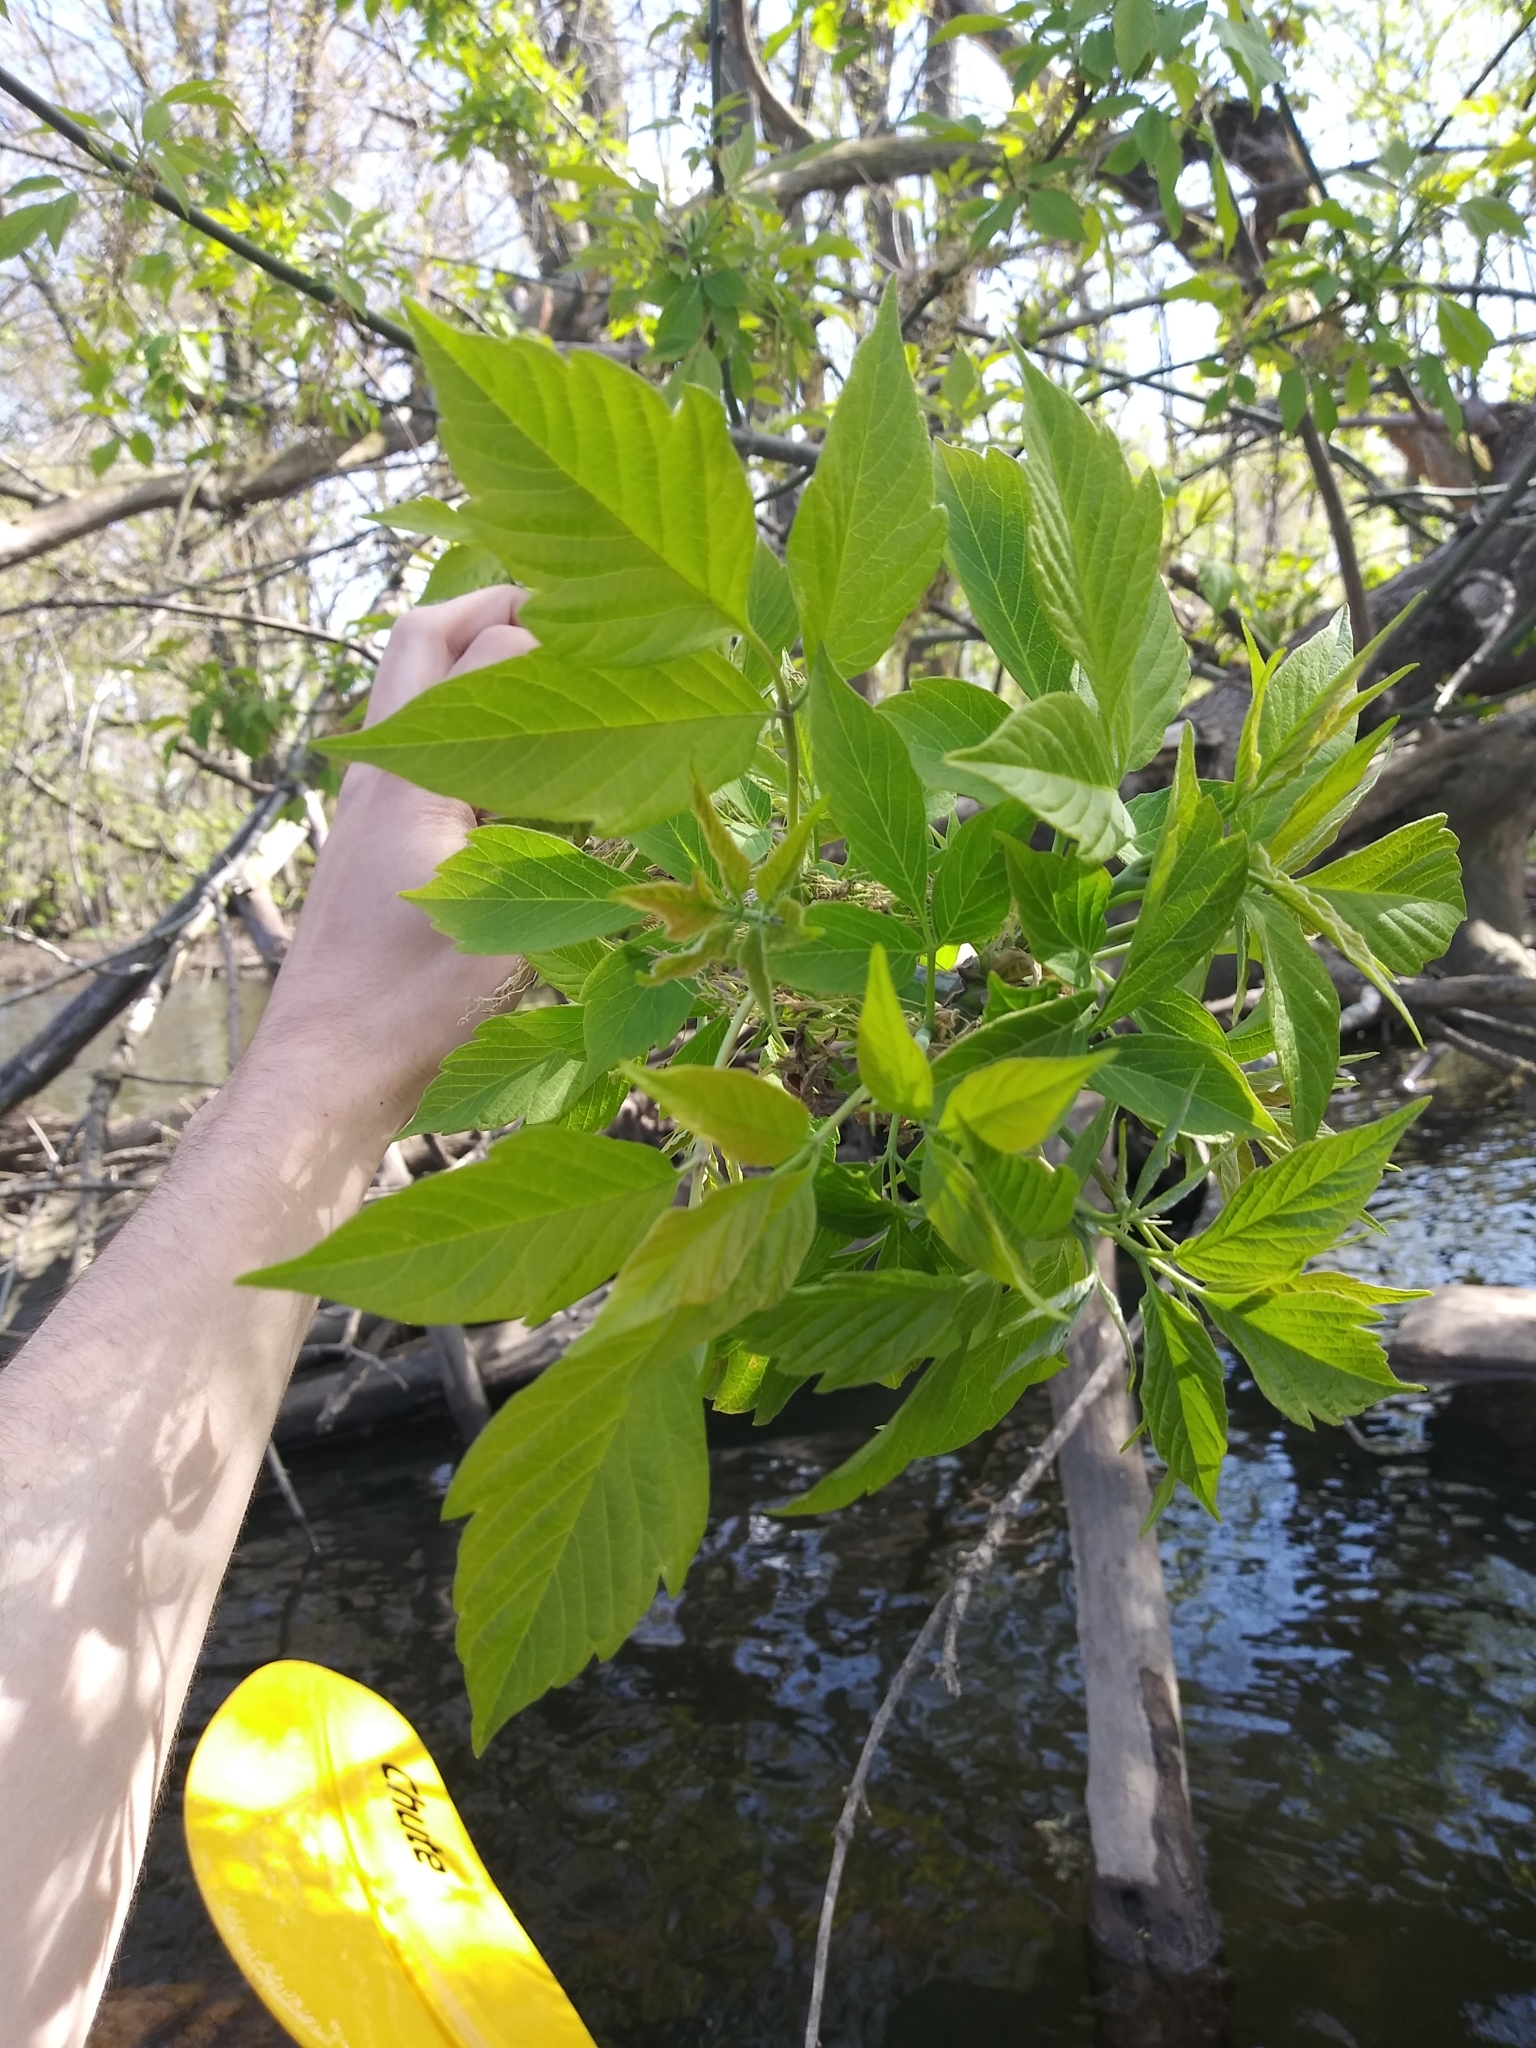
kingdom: Plantae
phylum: Tracheophyta
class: Magnoliopsida
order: Sapindales
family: Sapindaceae
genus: Acer
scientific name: Acer negundo
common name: Ashleaf maple
